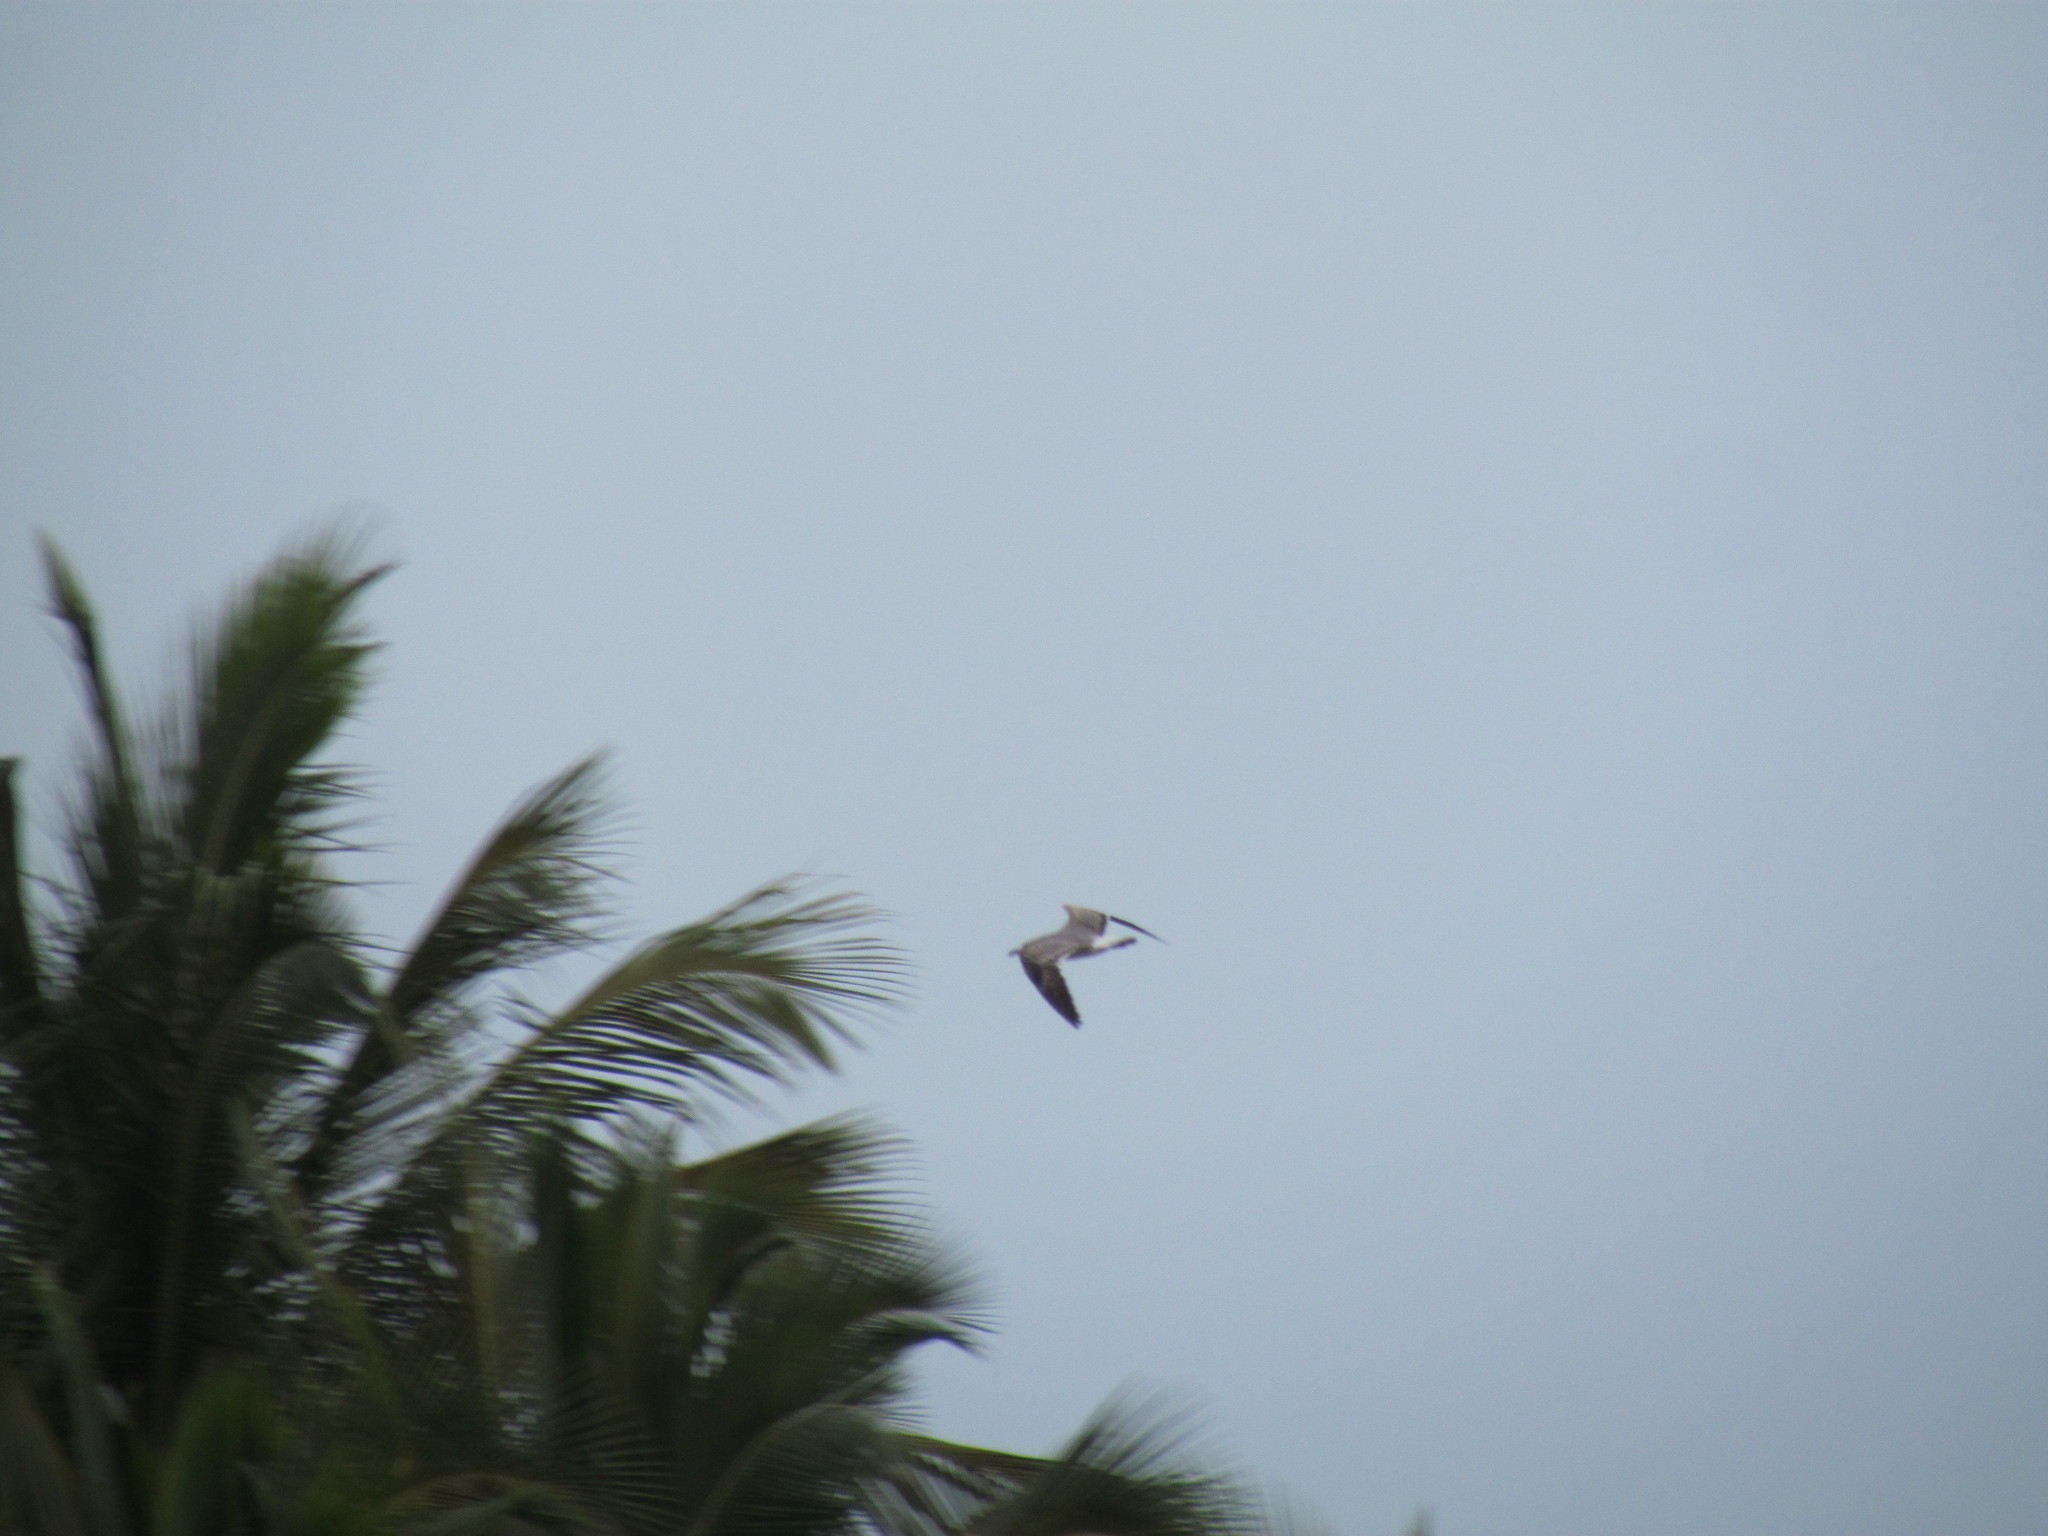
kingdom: Animalia
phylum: Chordata
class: Aves
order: Charadriiformes
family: Laridae
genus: Leucophaeus
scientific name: Leucophaeus atricilla
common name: Laughing gull
